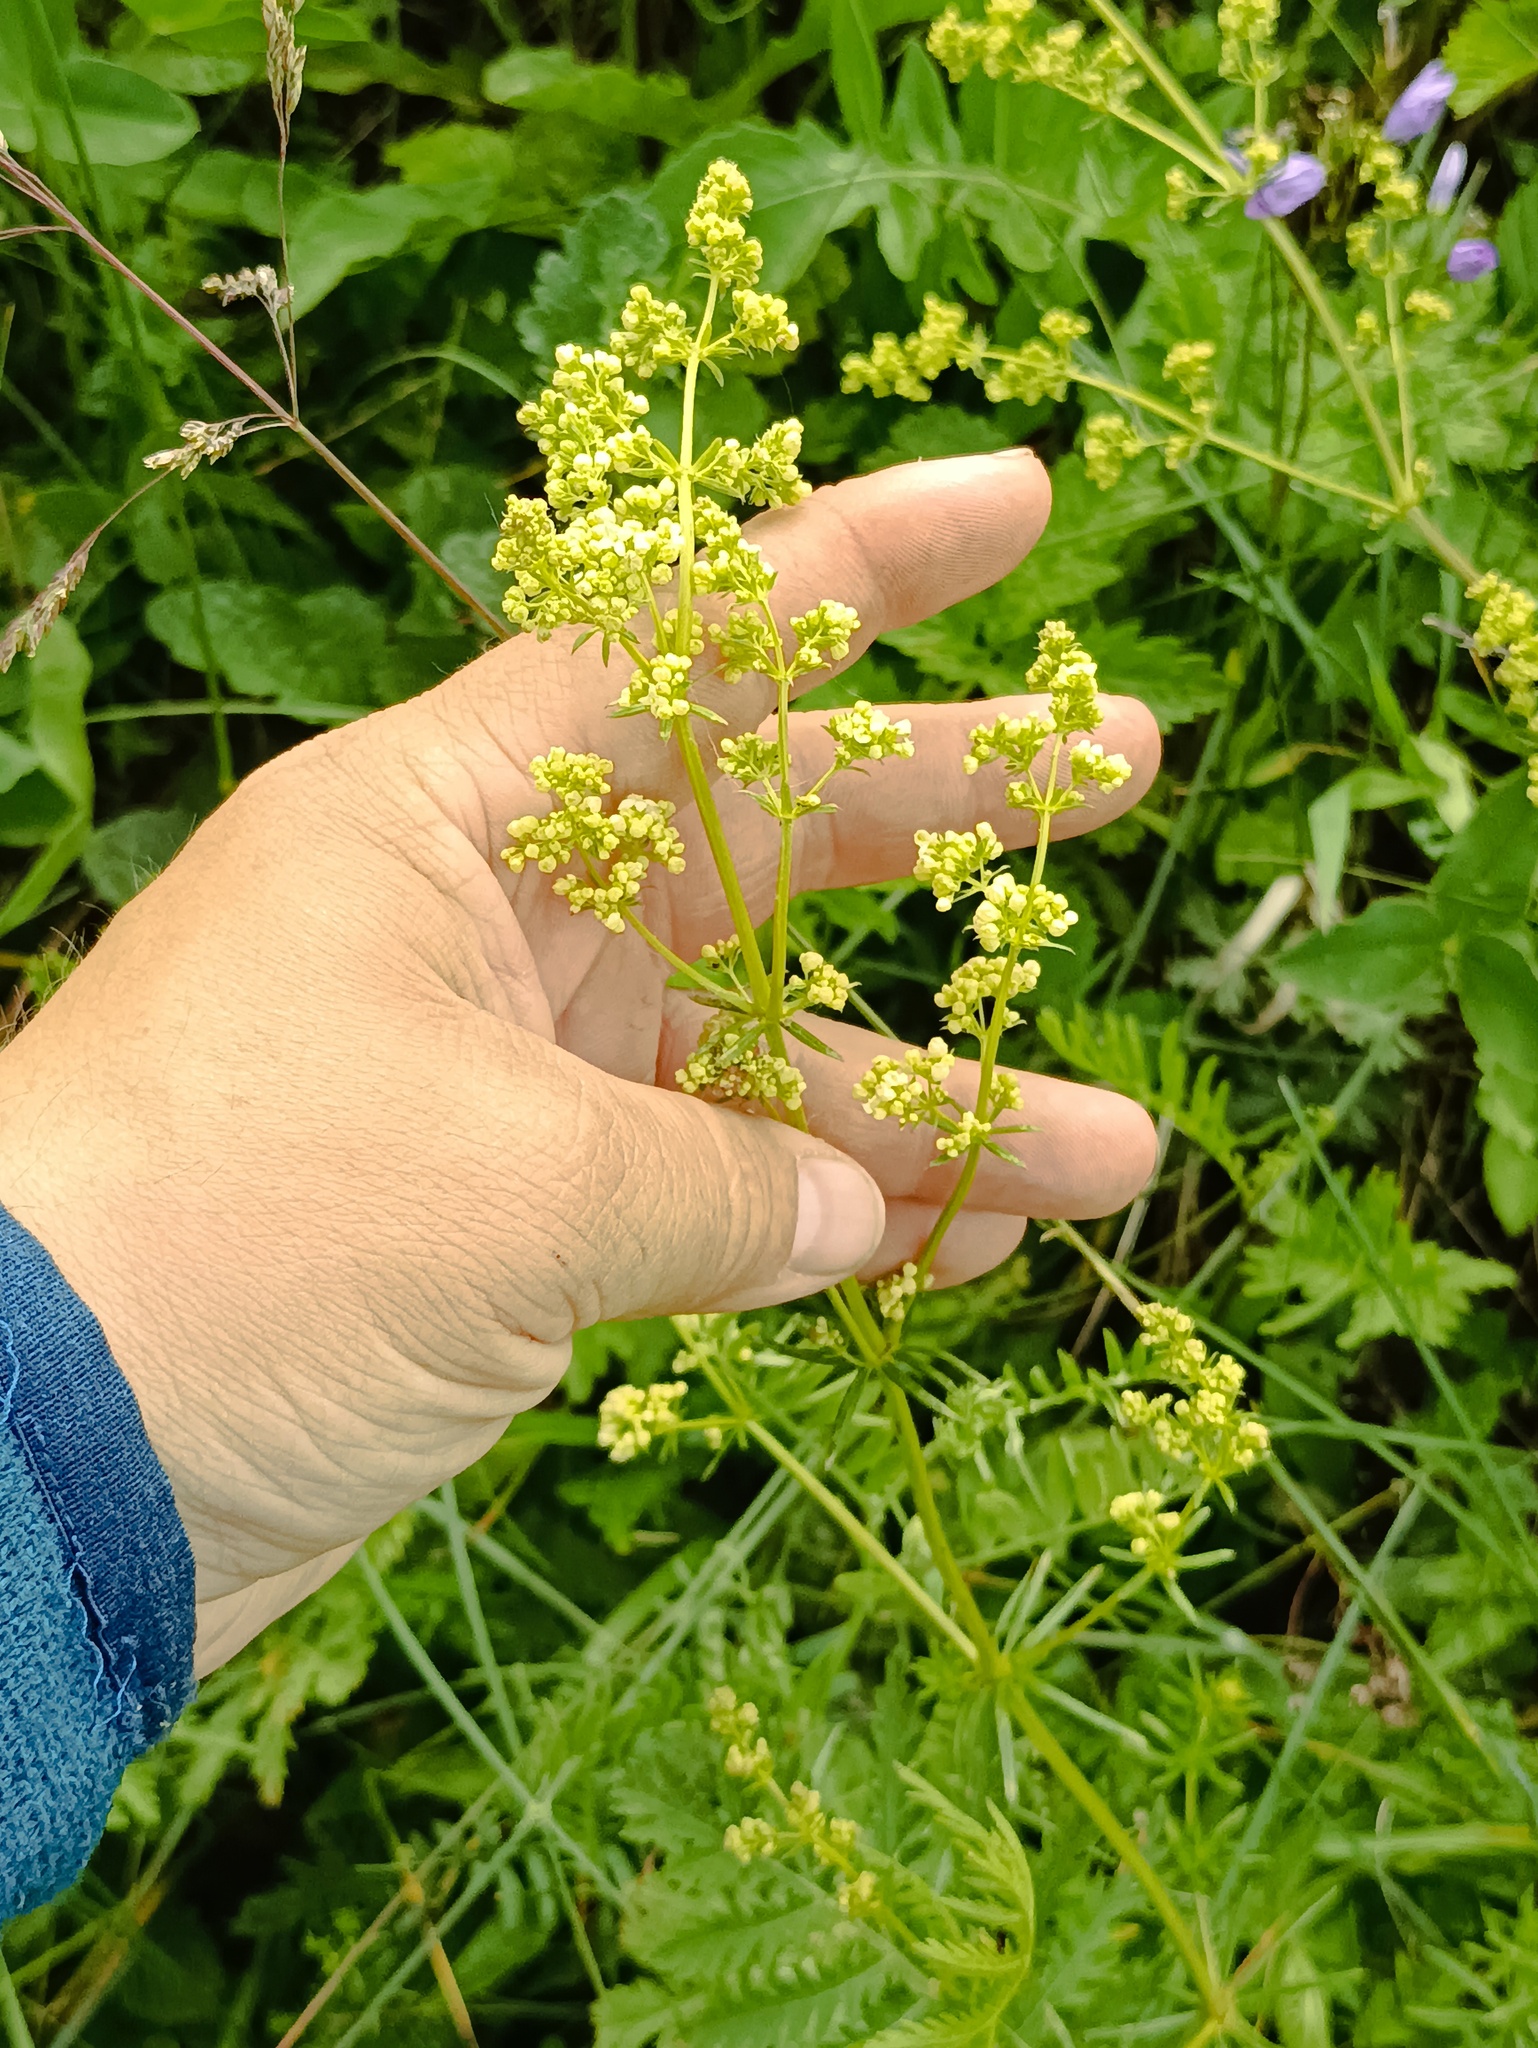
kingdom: Plantae
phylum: Tracheophyta
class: Magnoliopsida
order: Gentianales
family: Rubiaceae
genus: Galium
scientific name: Galium mollugo
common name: Hedge bedstraw
